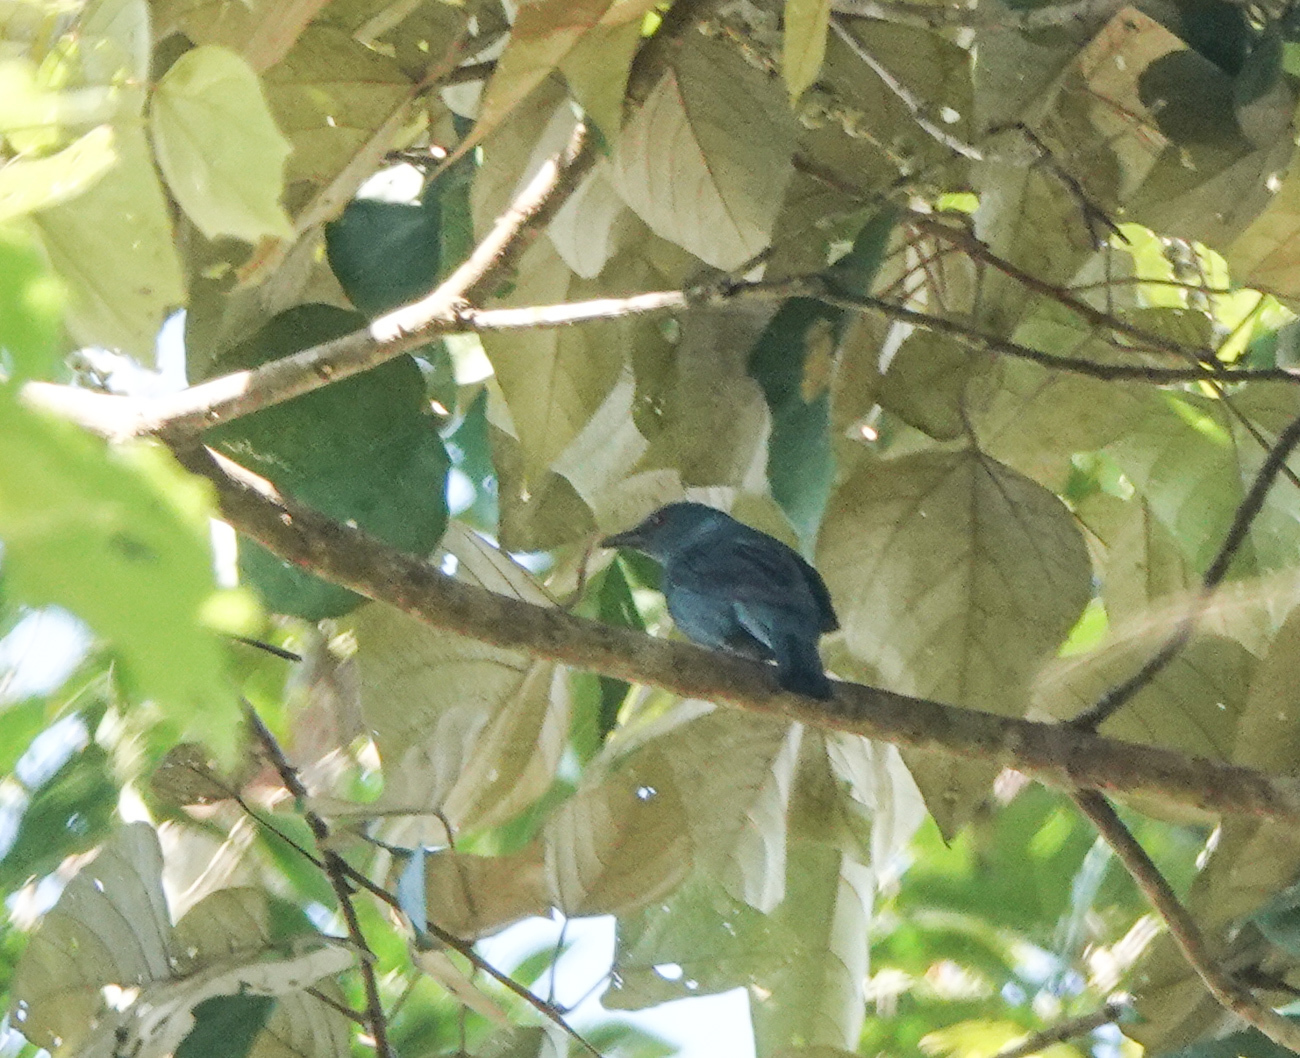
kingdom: Animalia
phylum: Chordata
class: Aves
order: Passeriformes
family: Irenidae
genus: Irena
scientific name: Irena puella
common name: Asian fairy-bluebird
